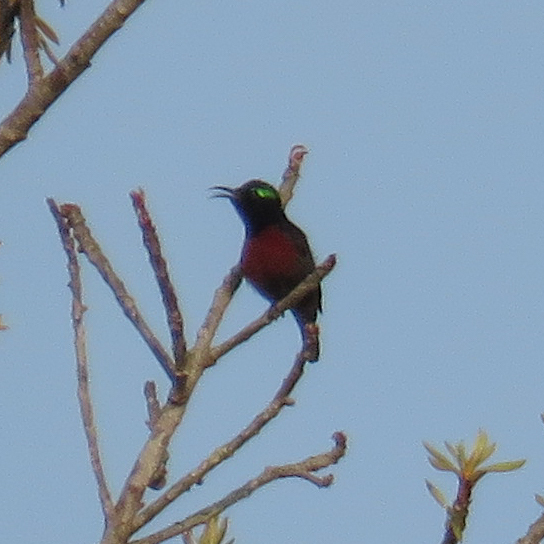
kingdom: Animalia
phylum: Chordata
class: Aves
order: Passeriformes
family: Nectariniidae
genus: Leptocoma
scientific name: Leptocoma brasiliana
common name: Van hasselt's sunbird
